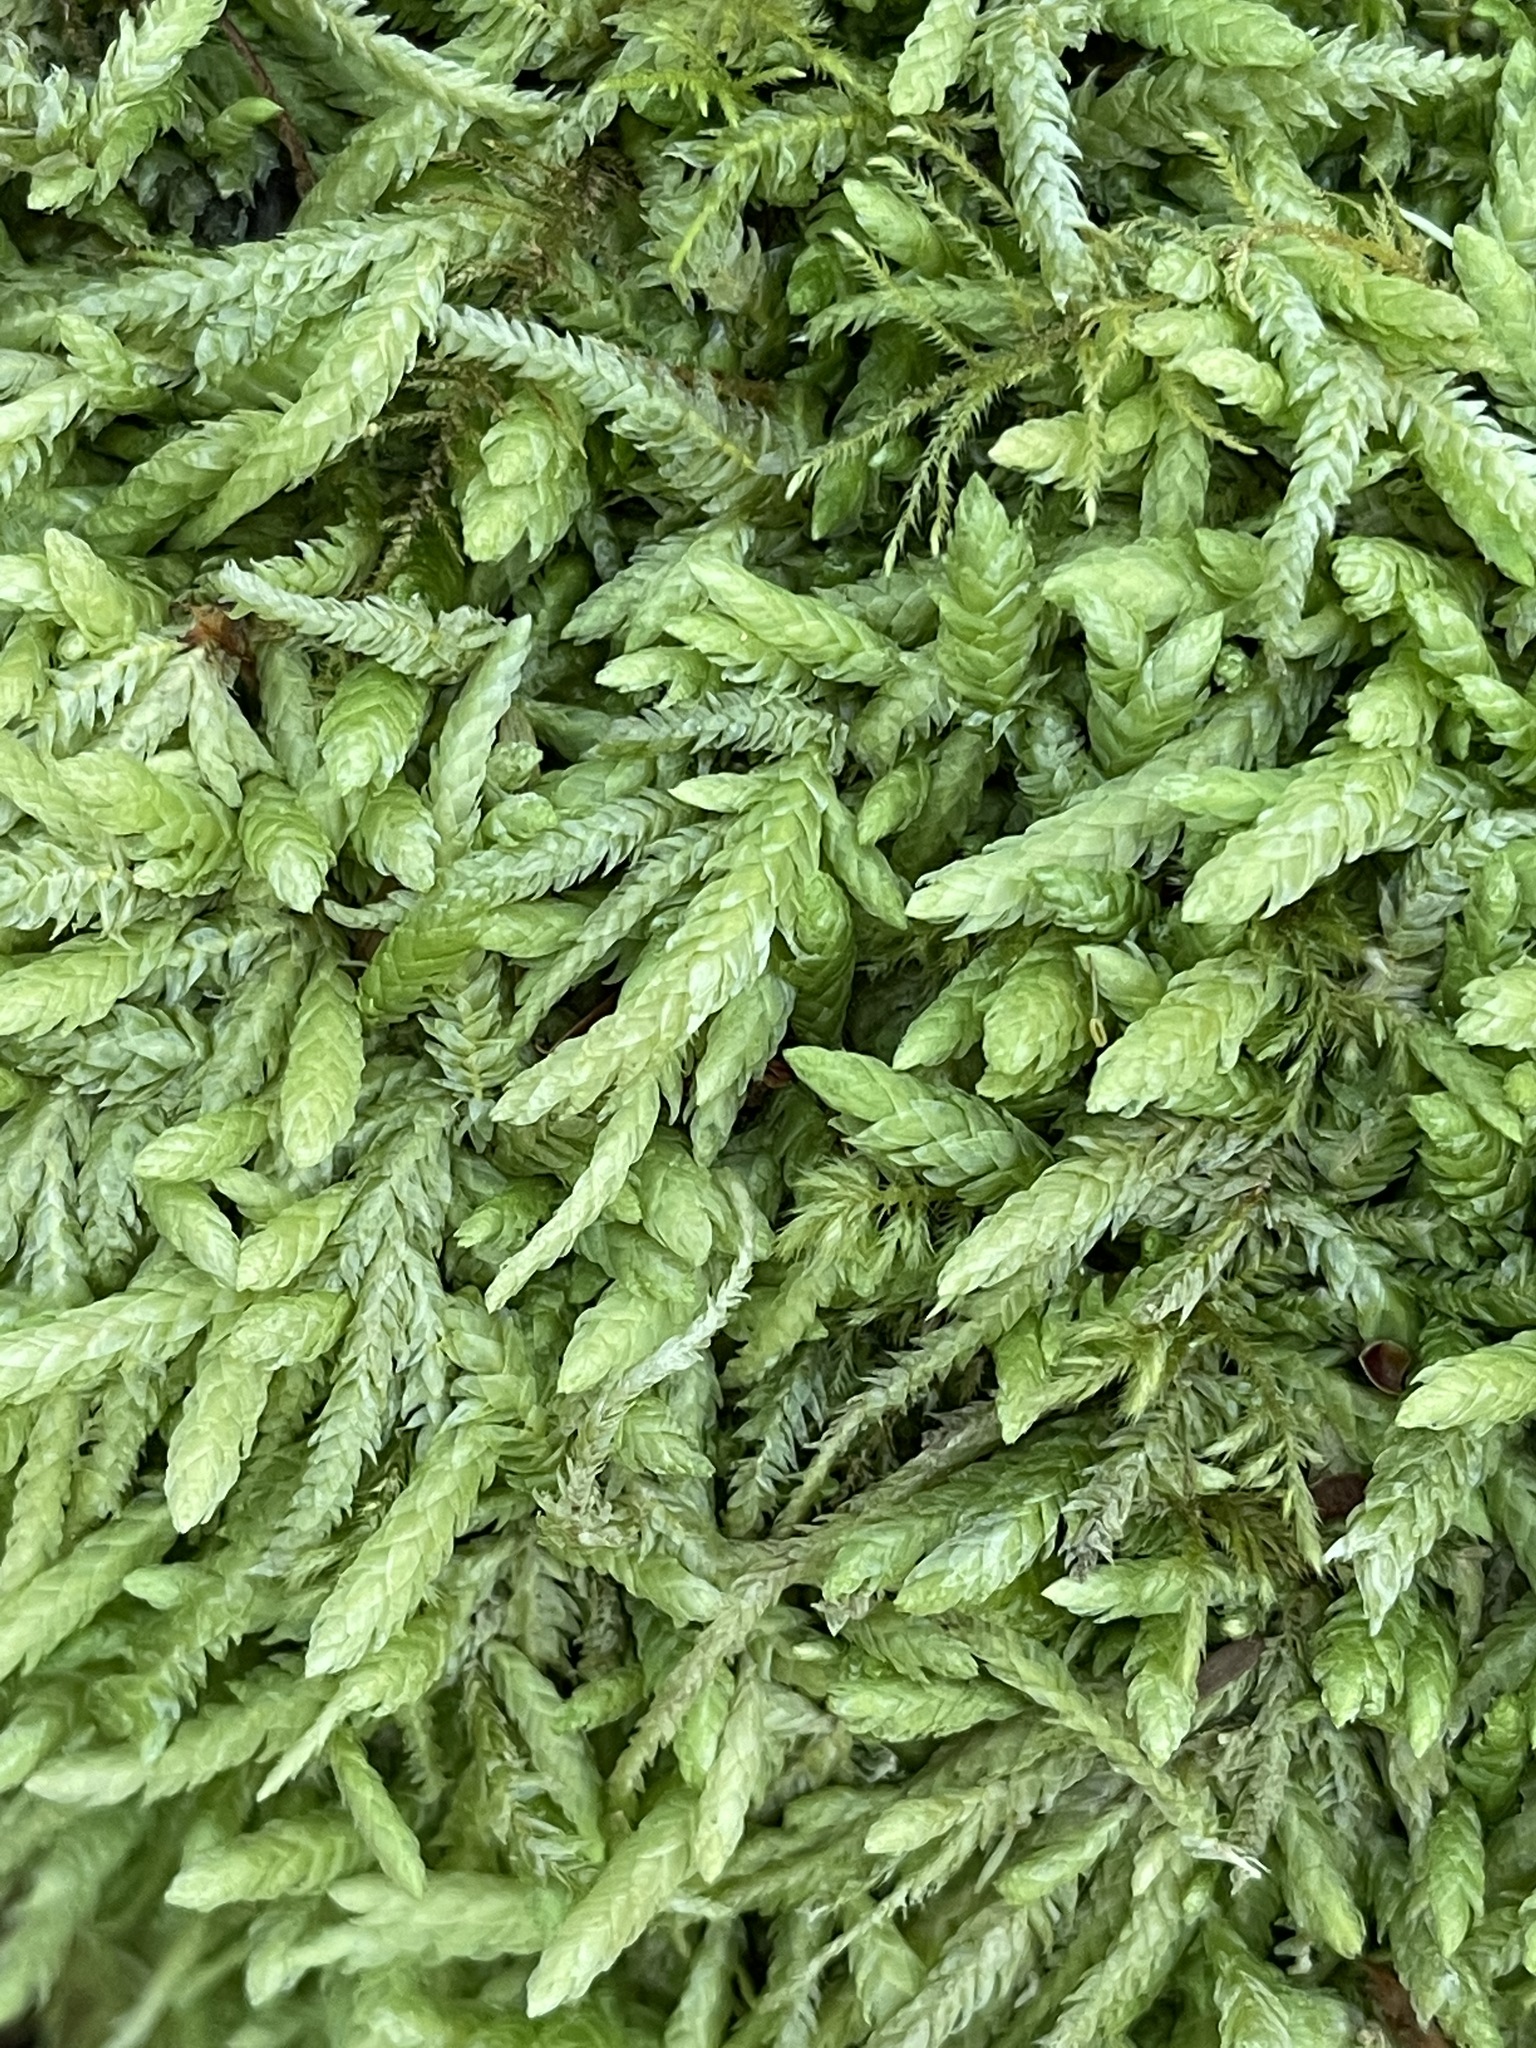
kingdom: Plantae
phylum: Bryophyta
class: Bryopsida
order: Hypnales
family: Plagiotheciaceae
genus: Plagiothecium
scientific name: Plagiothecium undulatum
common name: Waved silk-moss
